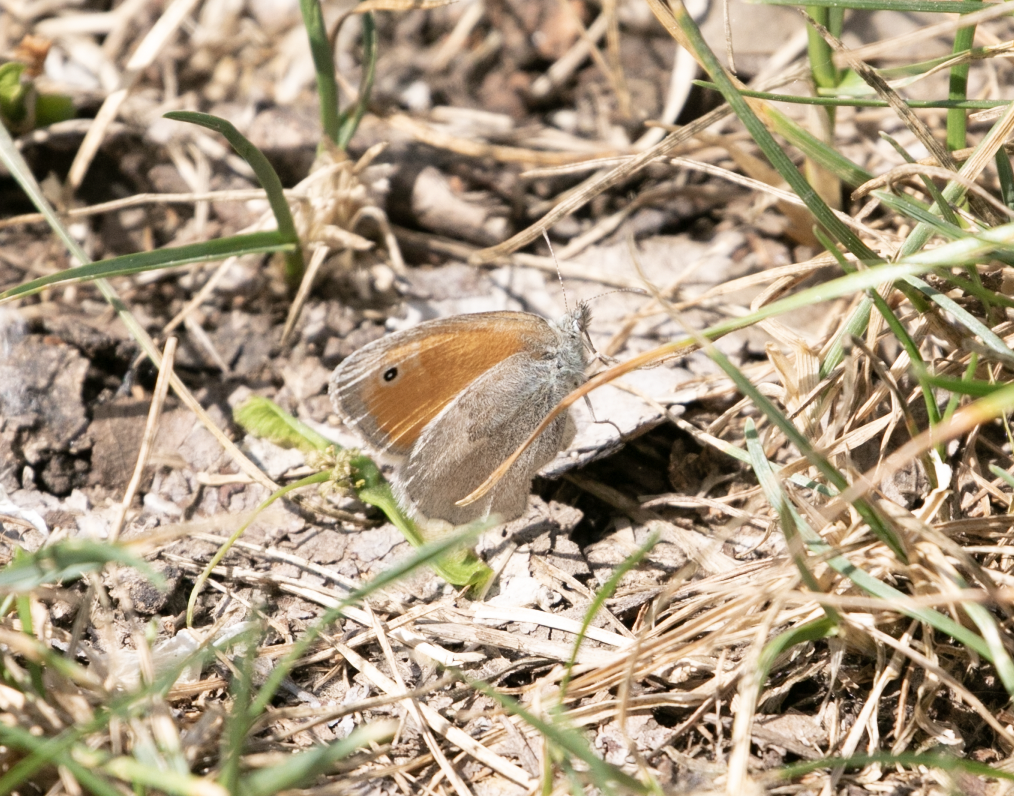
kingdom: Animalia
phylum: Arthropoda
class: Insecta
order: Lepidoptera
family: Nymphalidae
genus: Coenonympha
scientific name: Coenonympha pamphilus
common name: Small heath
